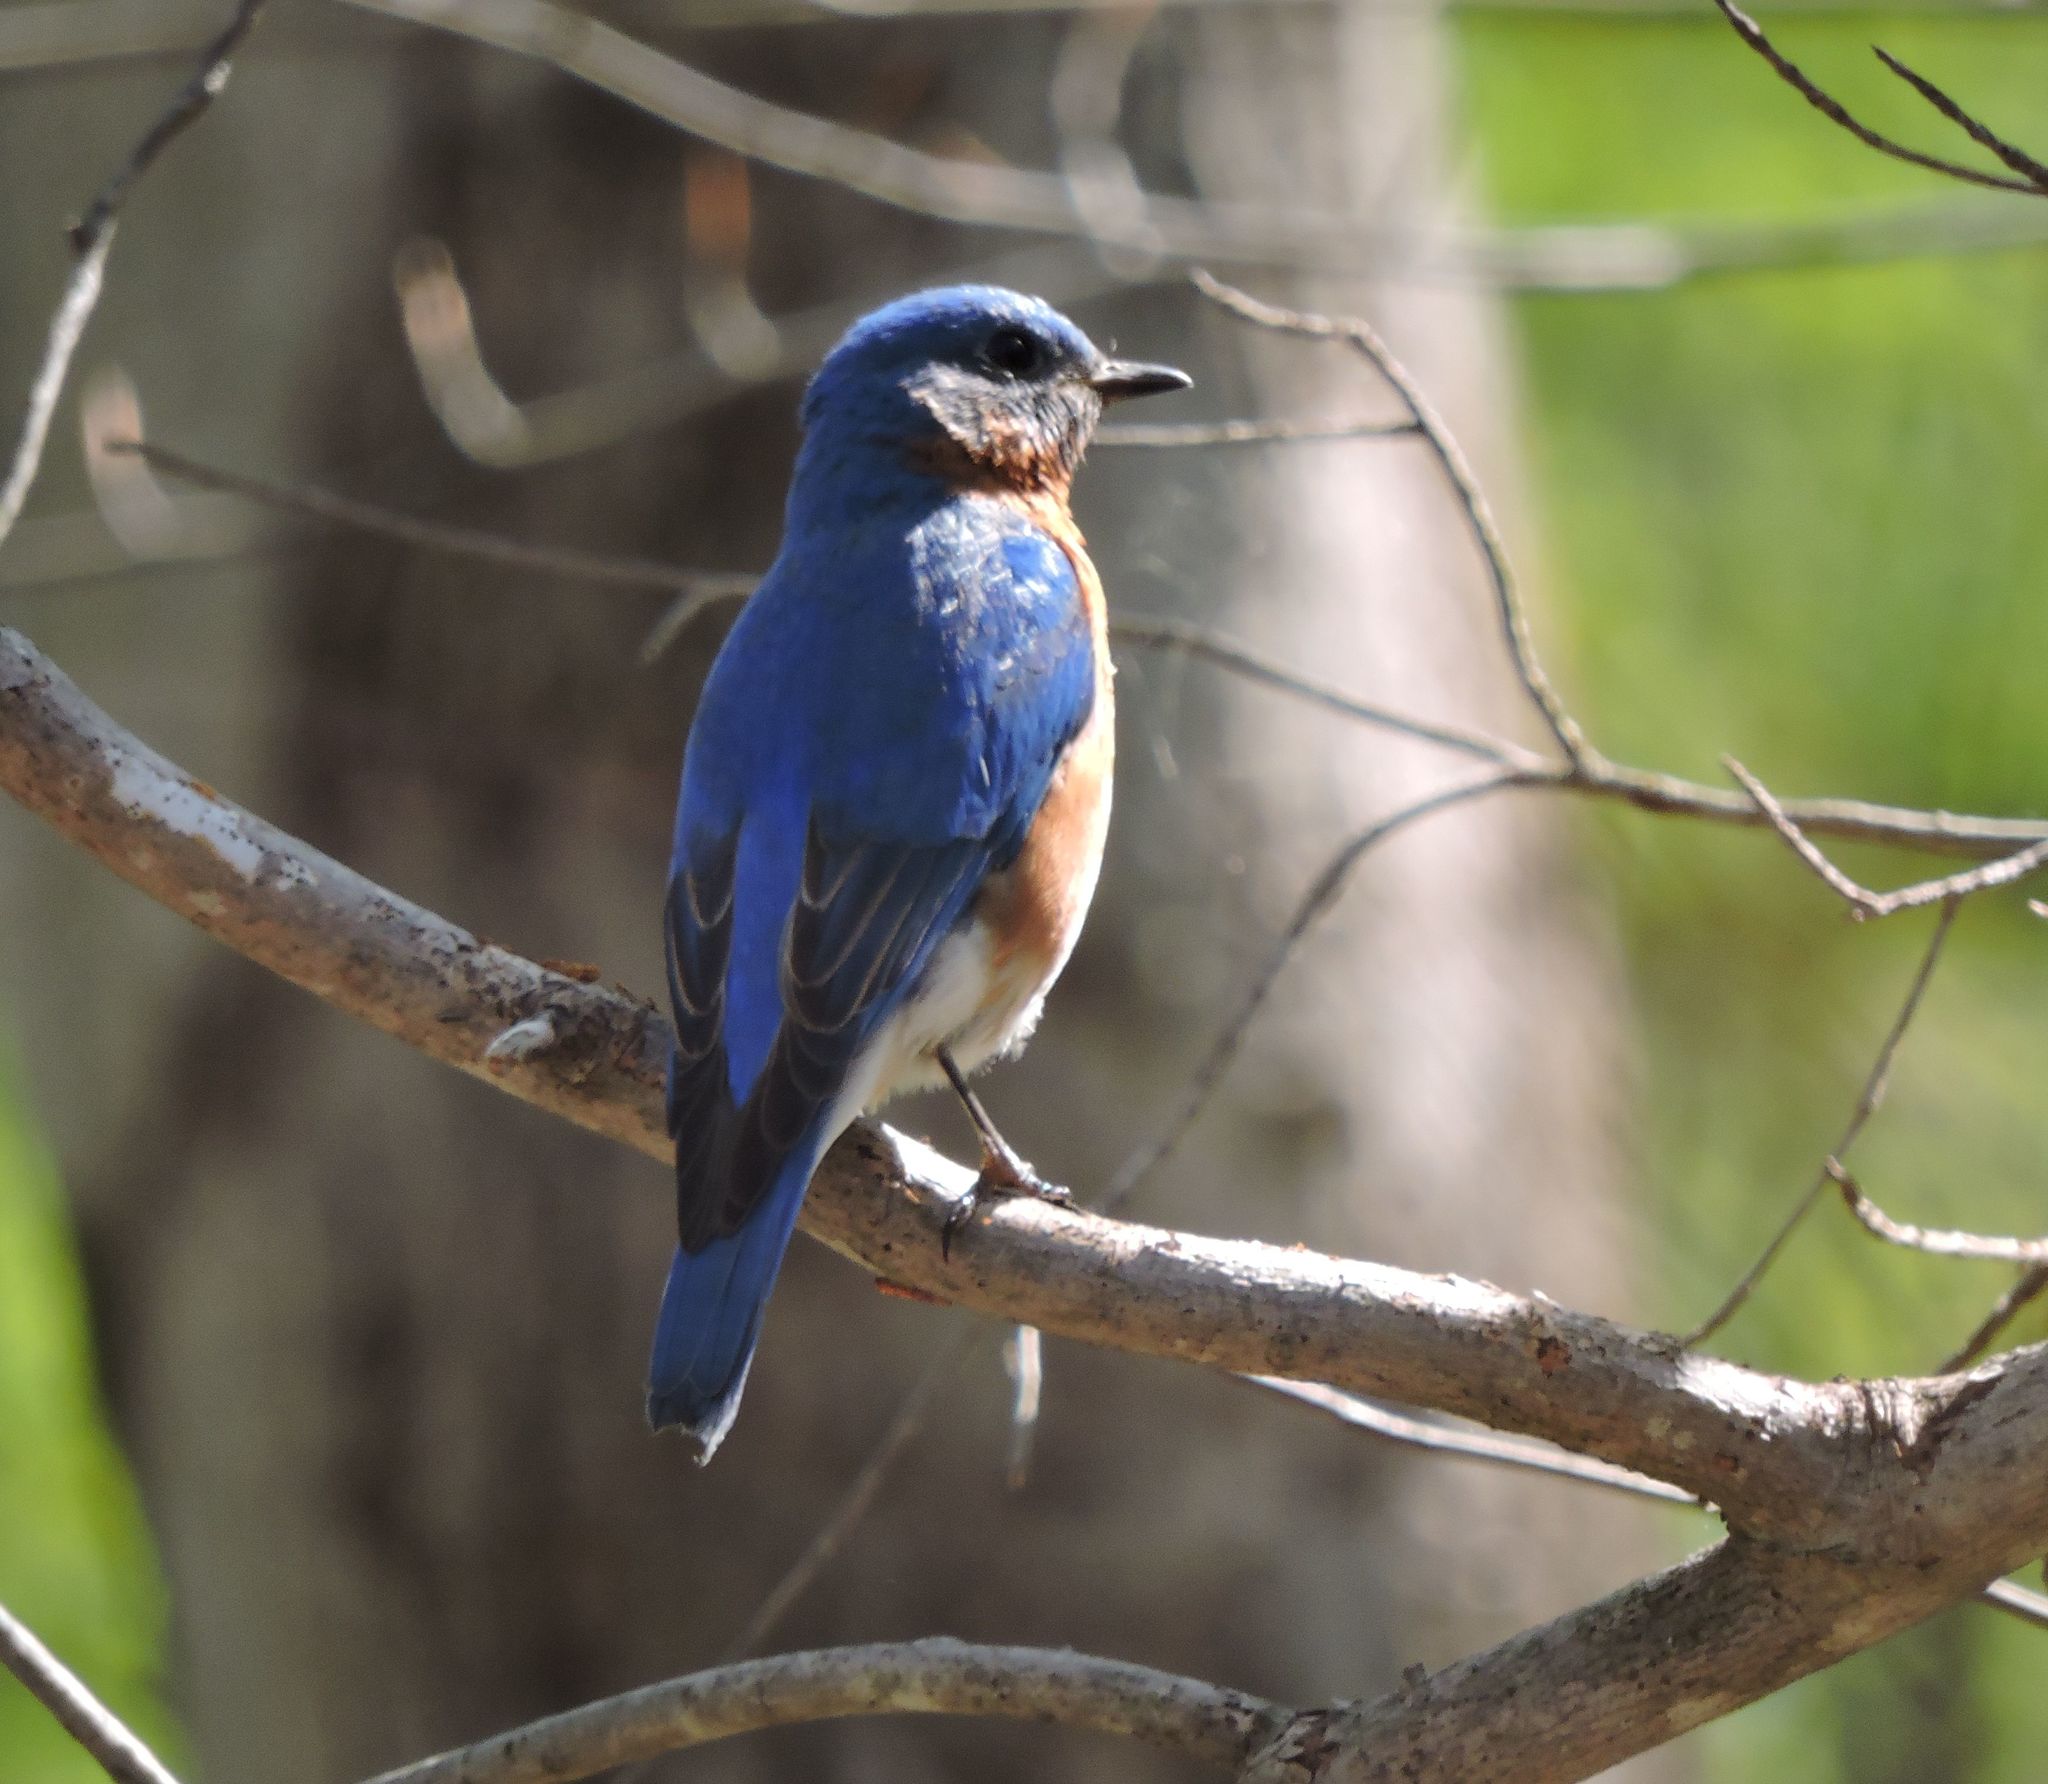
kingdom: Animalia
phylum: Chordata
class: Aves
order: Passeriformes
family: Turdidae
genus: Sialia
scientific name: Sialia sialis
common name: Eastern bluebird
